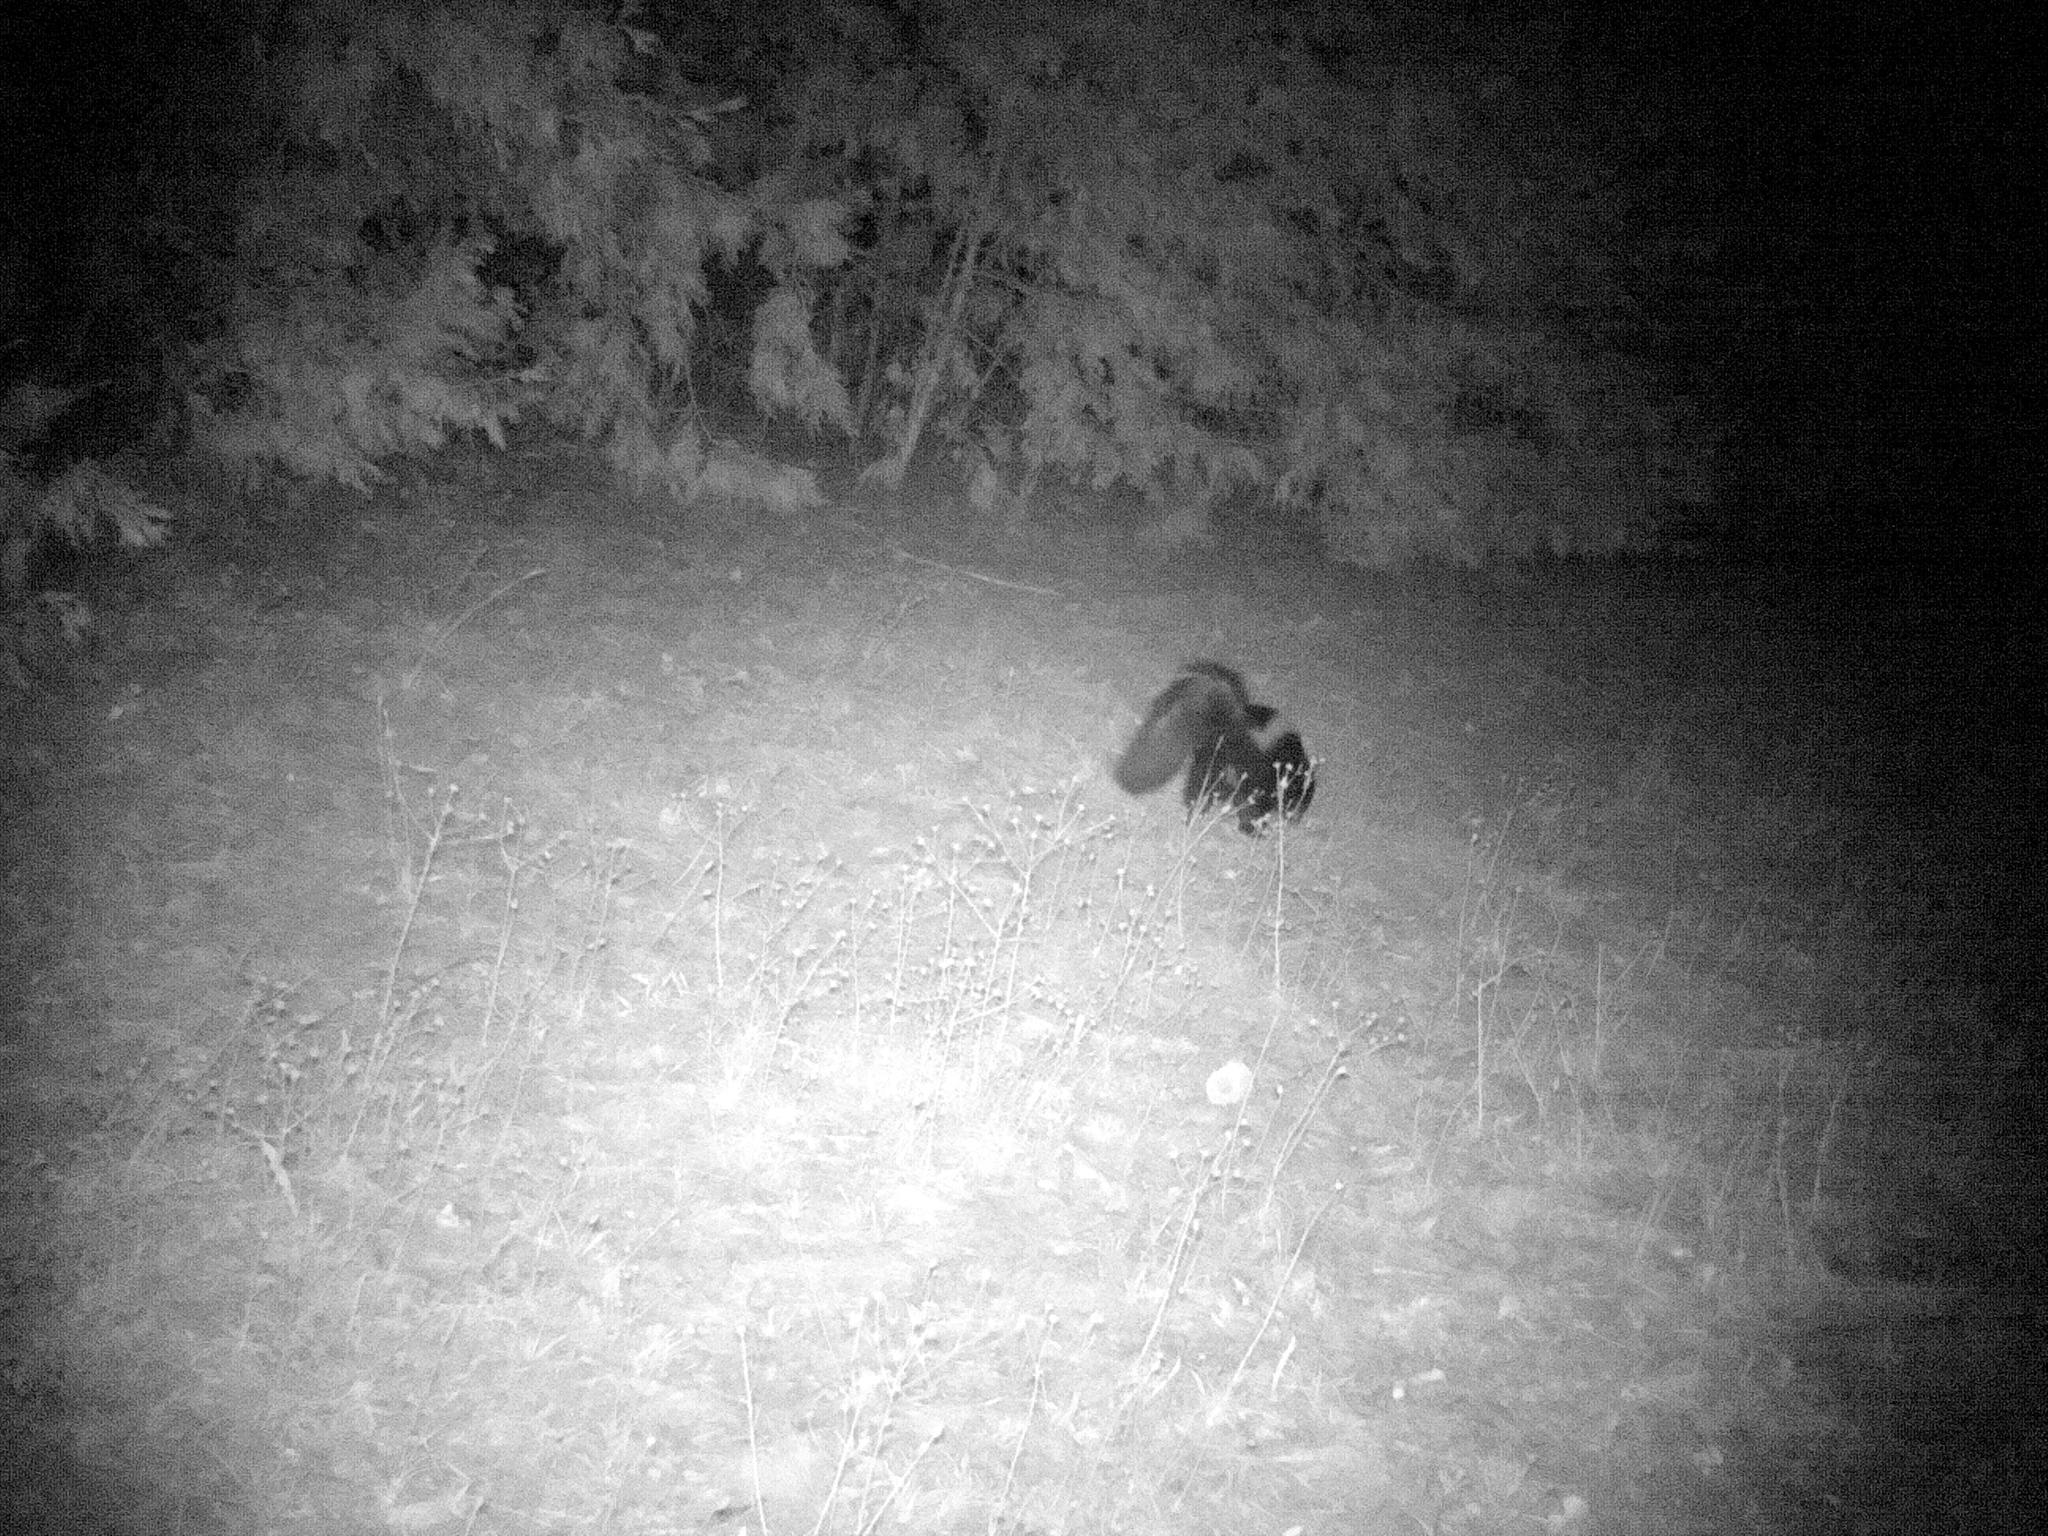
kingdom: Animalia
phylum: Chordata
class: Mammalia
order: Carnivora
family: Mephitidae
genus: Mephitis
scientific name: Mephitis mephitis
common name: Striped skunk
